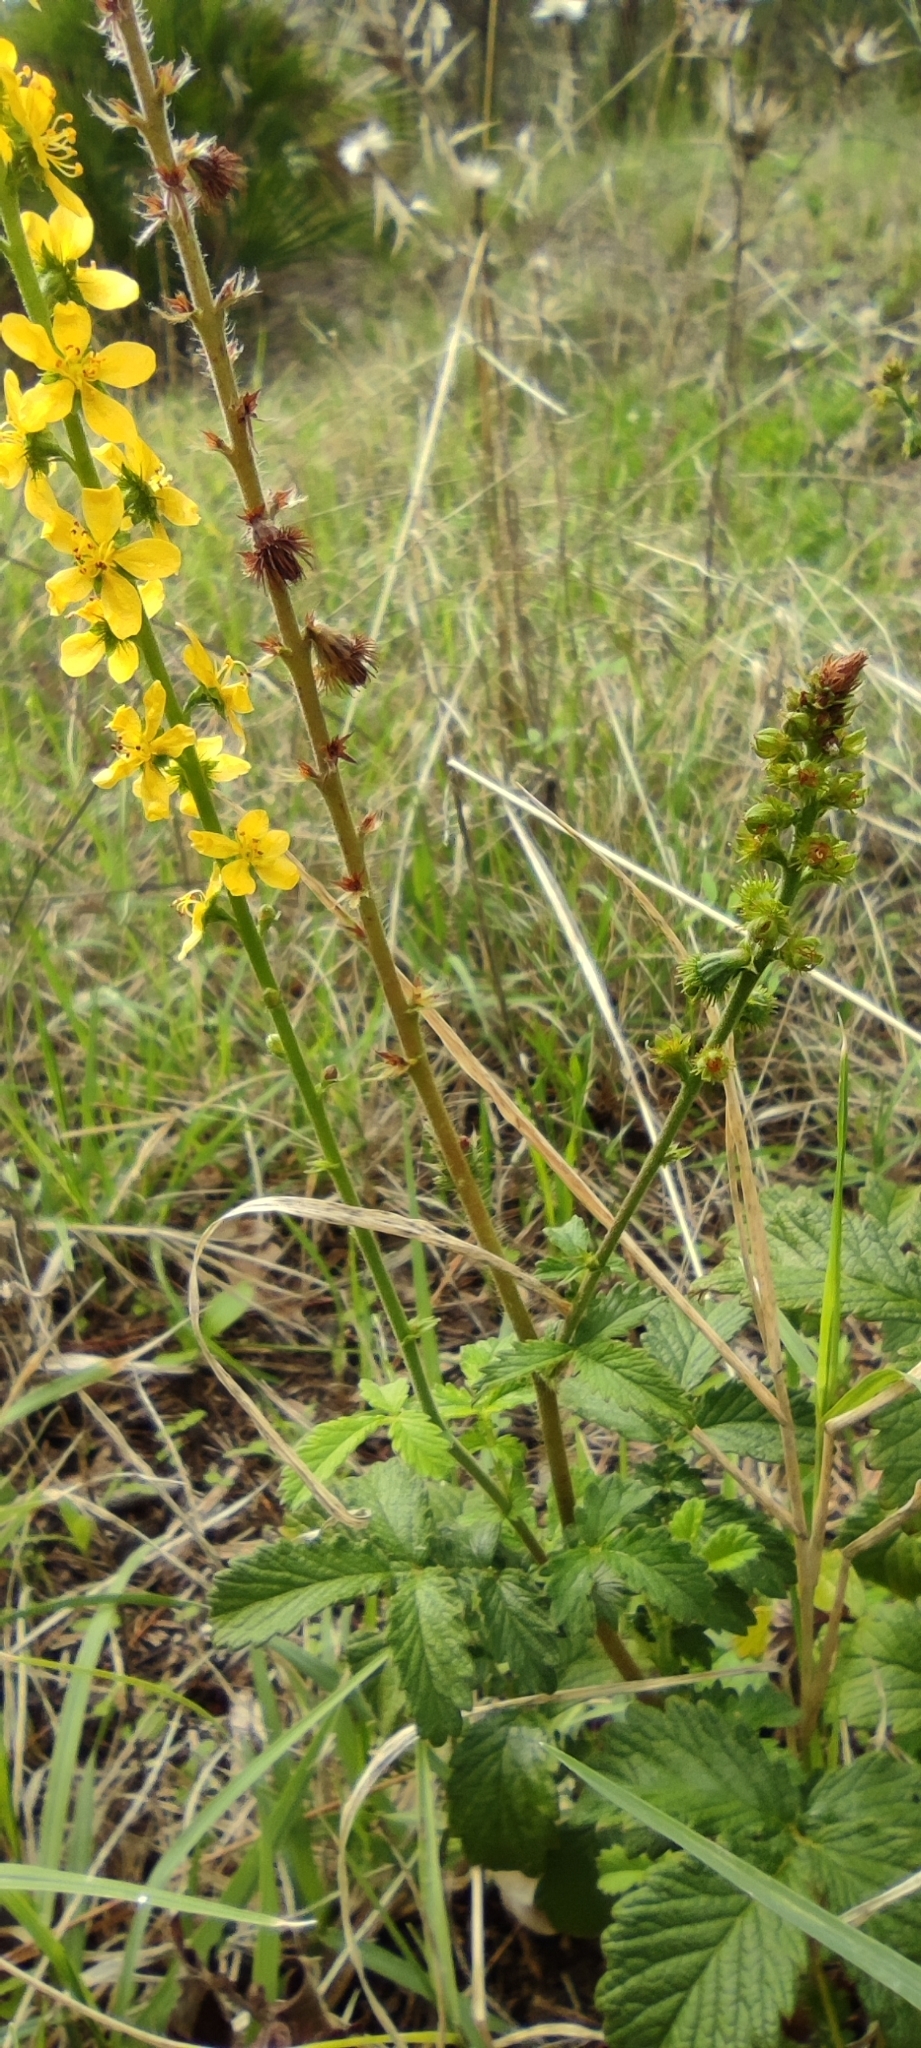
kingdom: Plantae
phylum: Tracheophyta
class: Magnoliopsida
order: Rosales
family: Rosaceae
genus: Agrimonia
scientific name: Agrimonia eupatoria
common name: Agrimony
